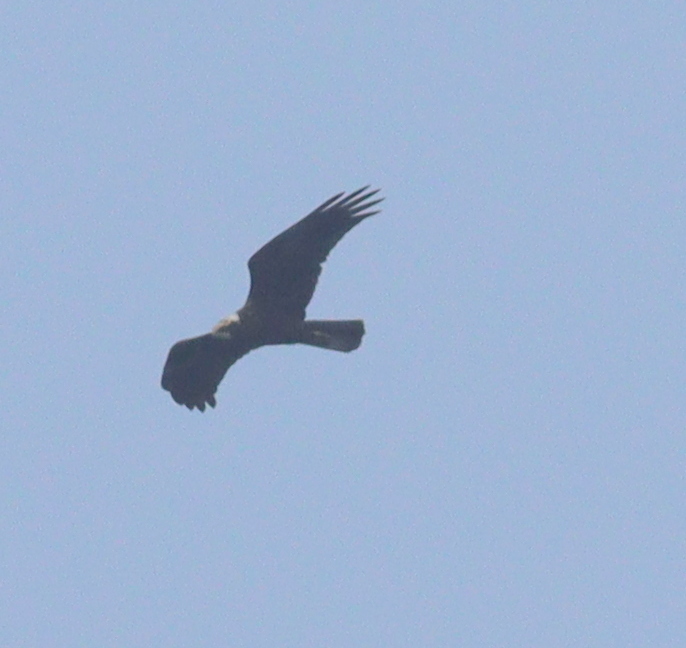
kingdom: Animalia
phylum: Chordata
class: Aves
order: Accipitriformes
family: Accipitridae
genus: Circus
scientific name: Circus aeruginosus
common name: Western marsh harrier
